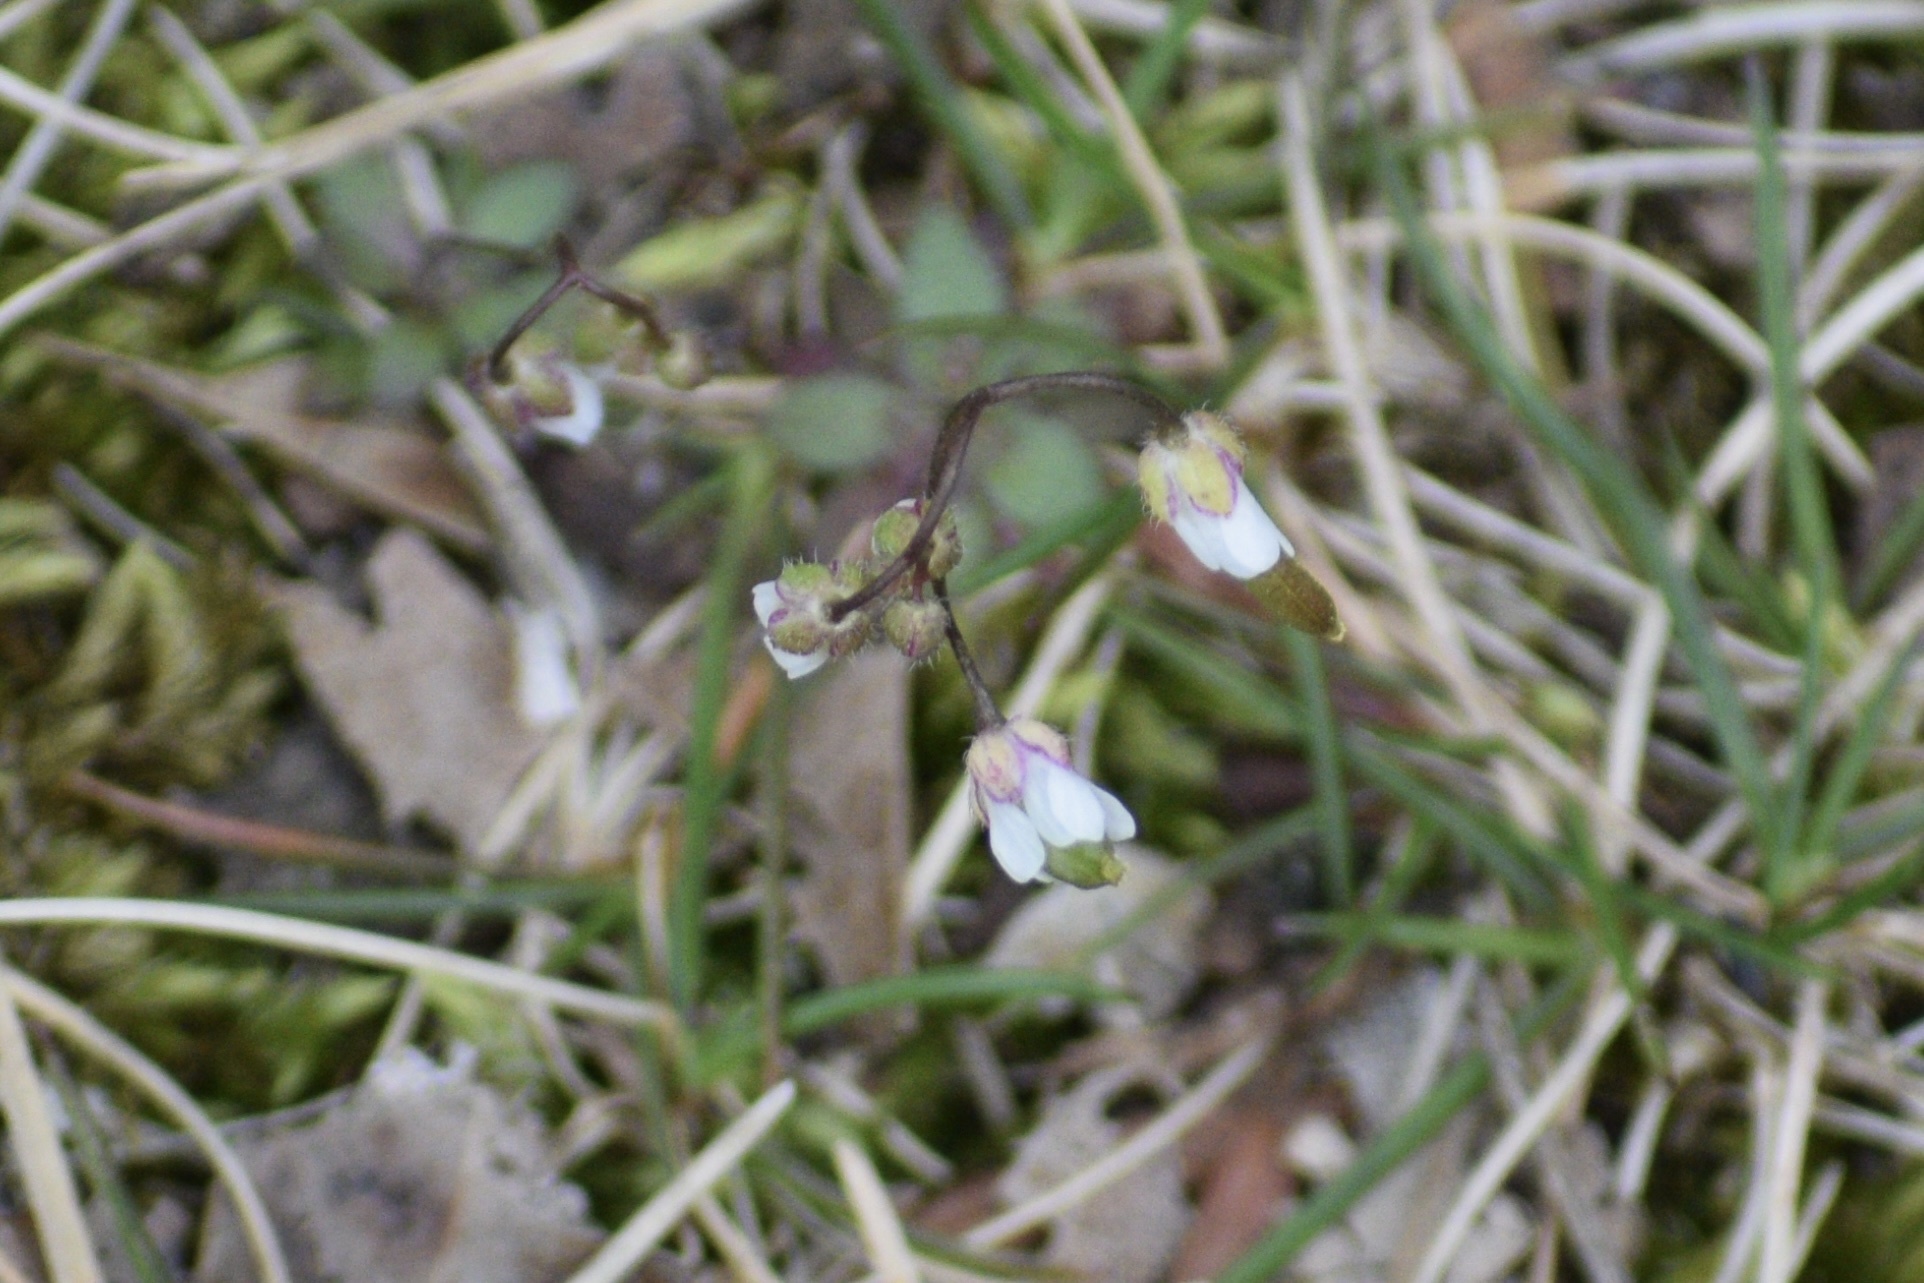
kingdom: Plantae
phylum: Tracheophyta
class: Magnoliopsida
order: Brassicales
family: Brassicaceae
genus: Draba
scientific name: Draba verna
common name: Spring draba
